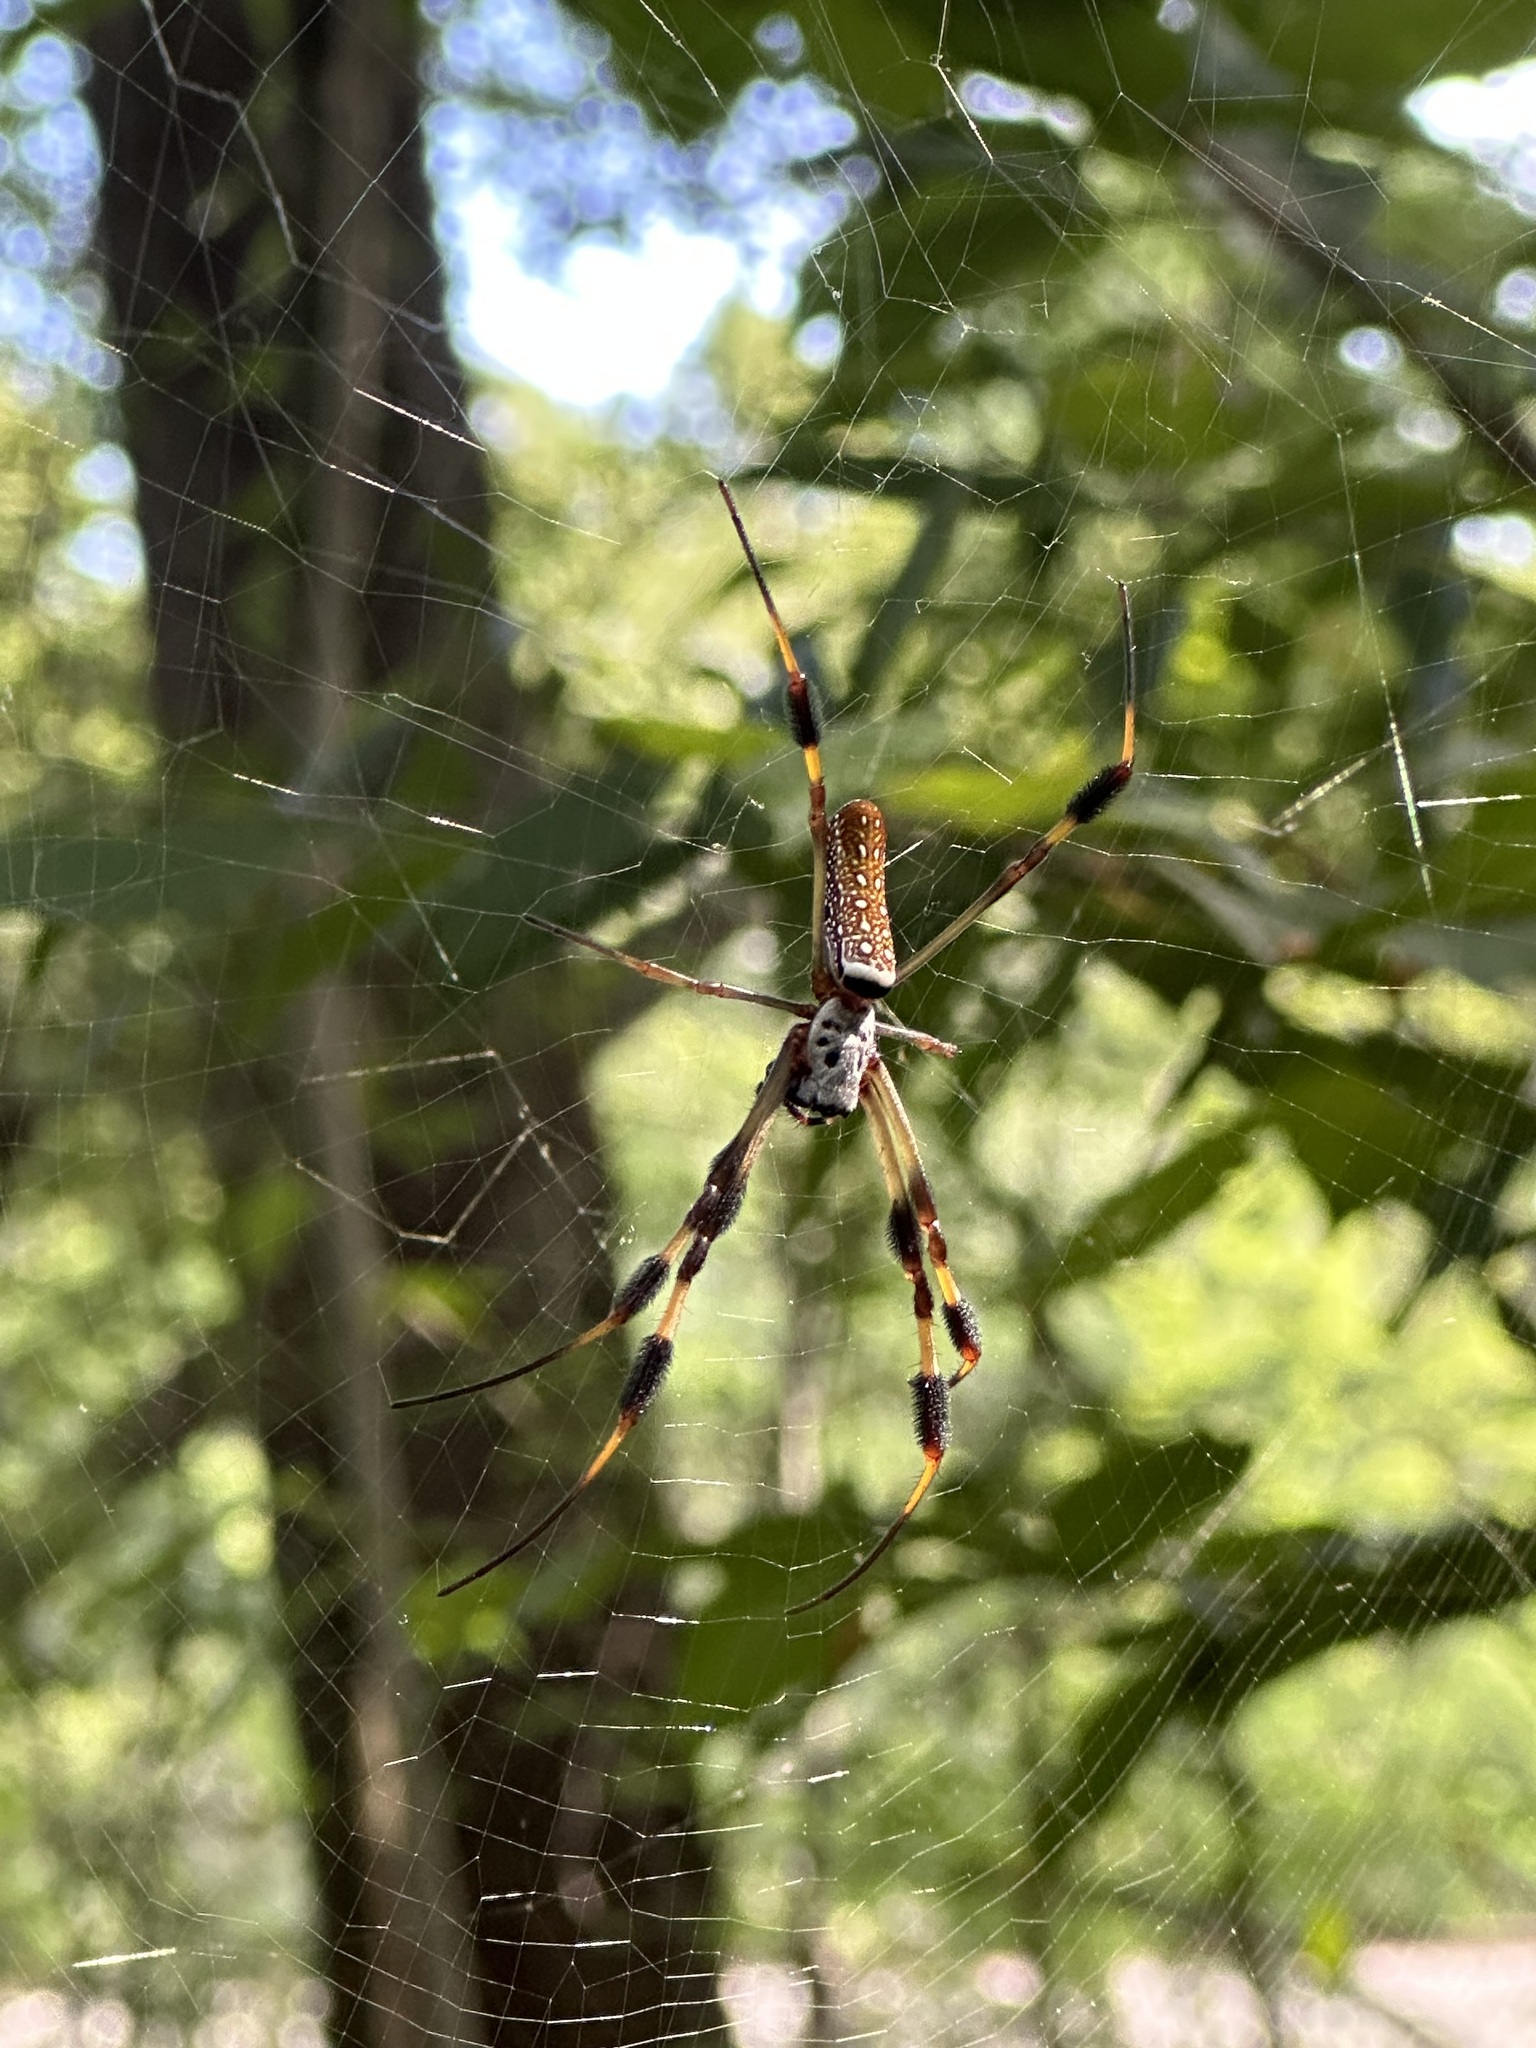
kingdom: Animalia
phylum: Arthropoda
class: Arachnida
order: Araneae
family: Araneidae
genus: Trichonephila
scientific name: Trichonephila clavipes
